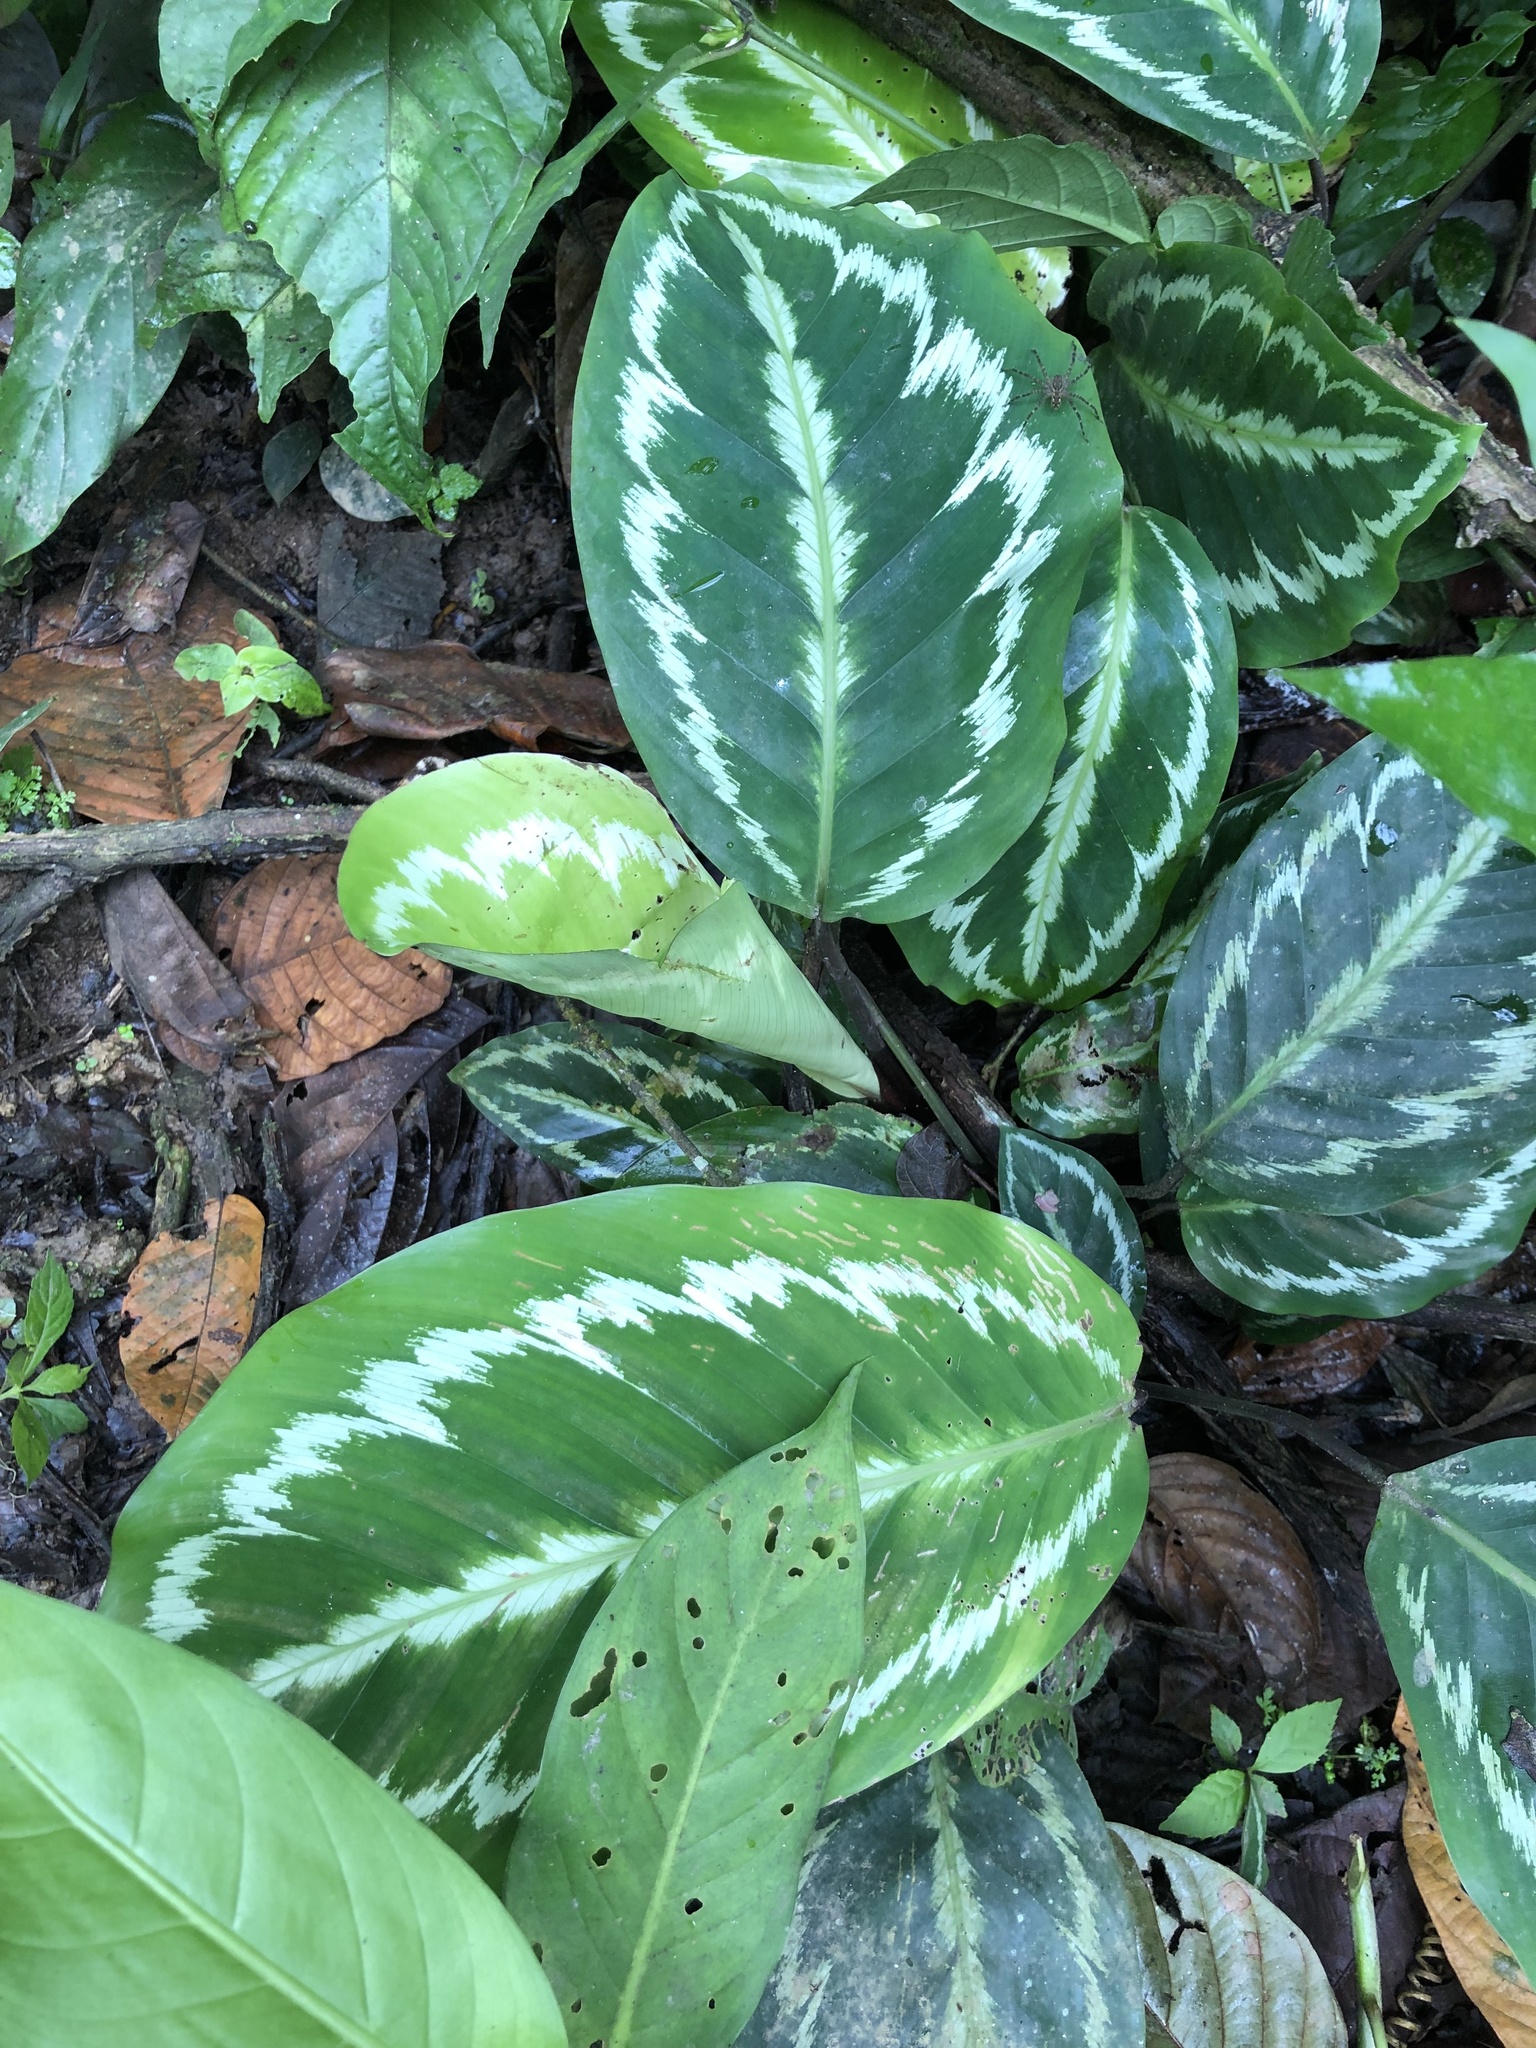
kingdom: Plantae
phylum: Tracheophyta
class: Liliopsida
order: Zingiberales
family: Marantaceae
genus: Goeppertia
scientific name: Goeppertia picturata
